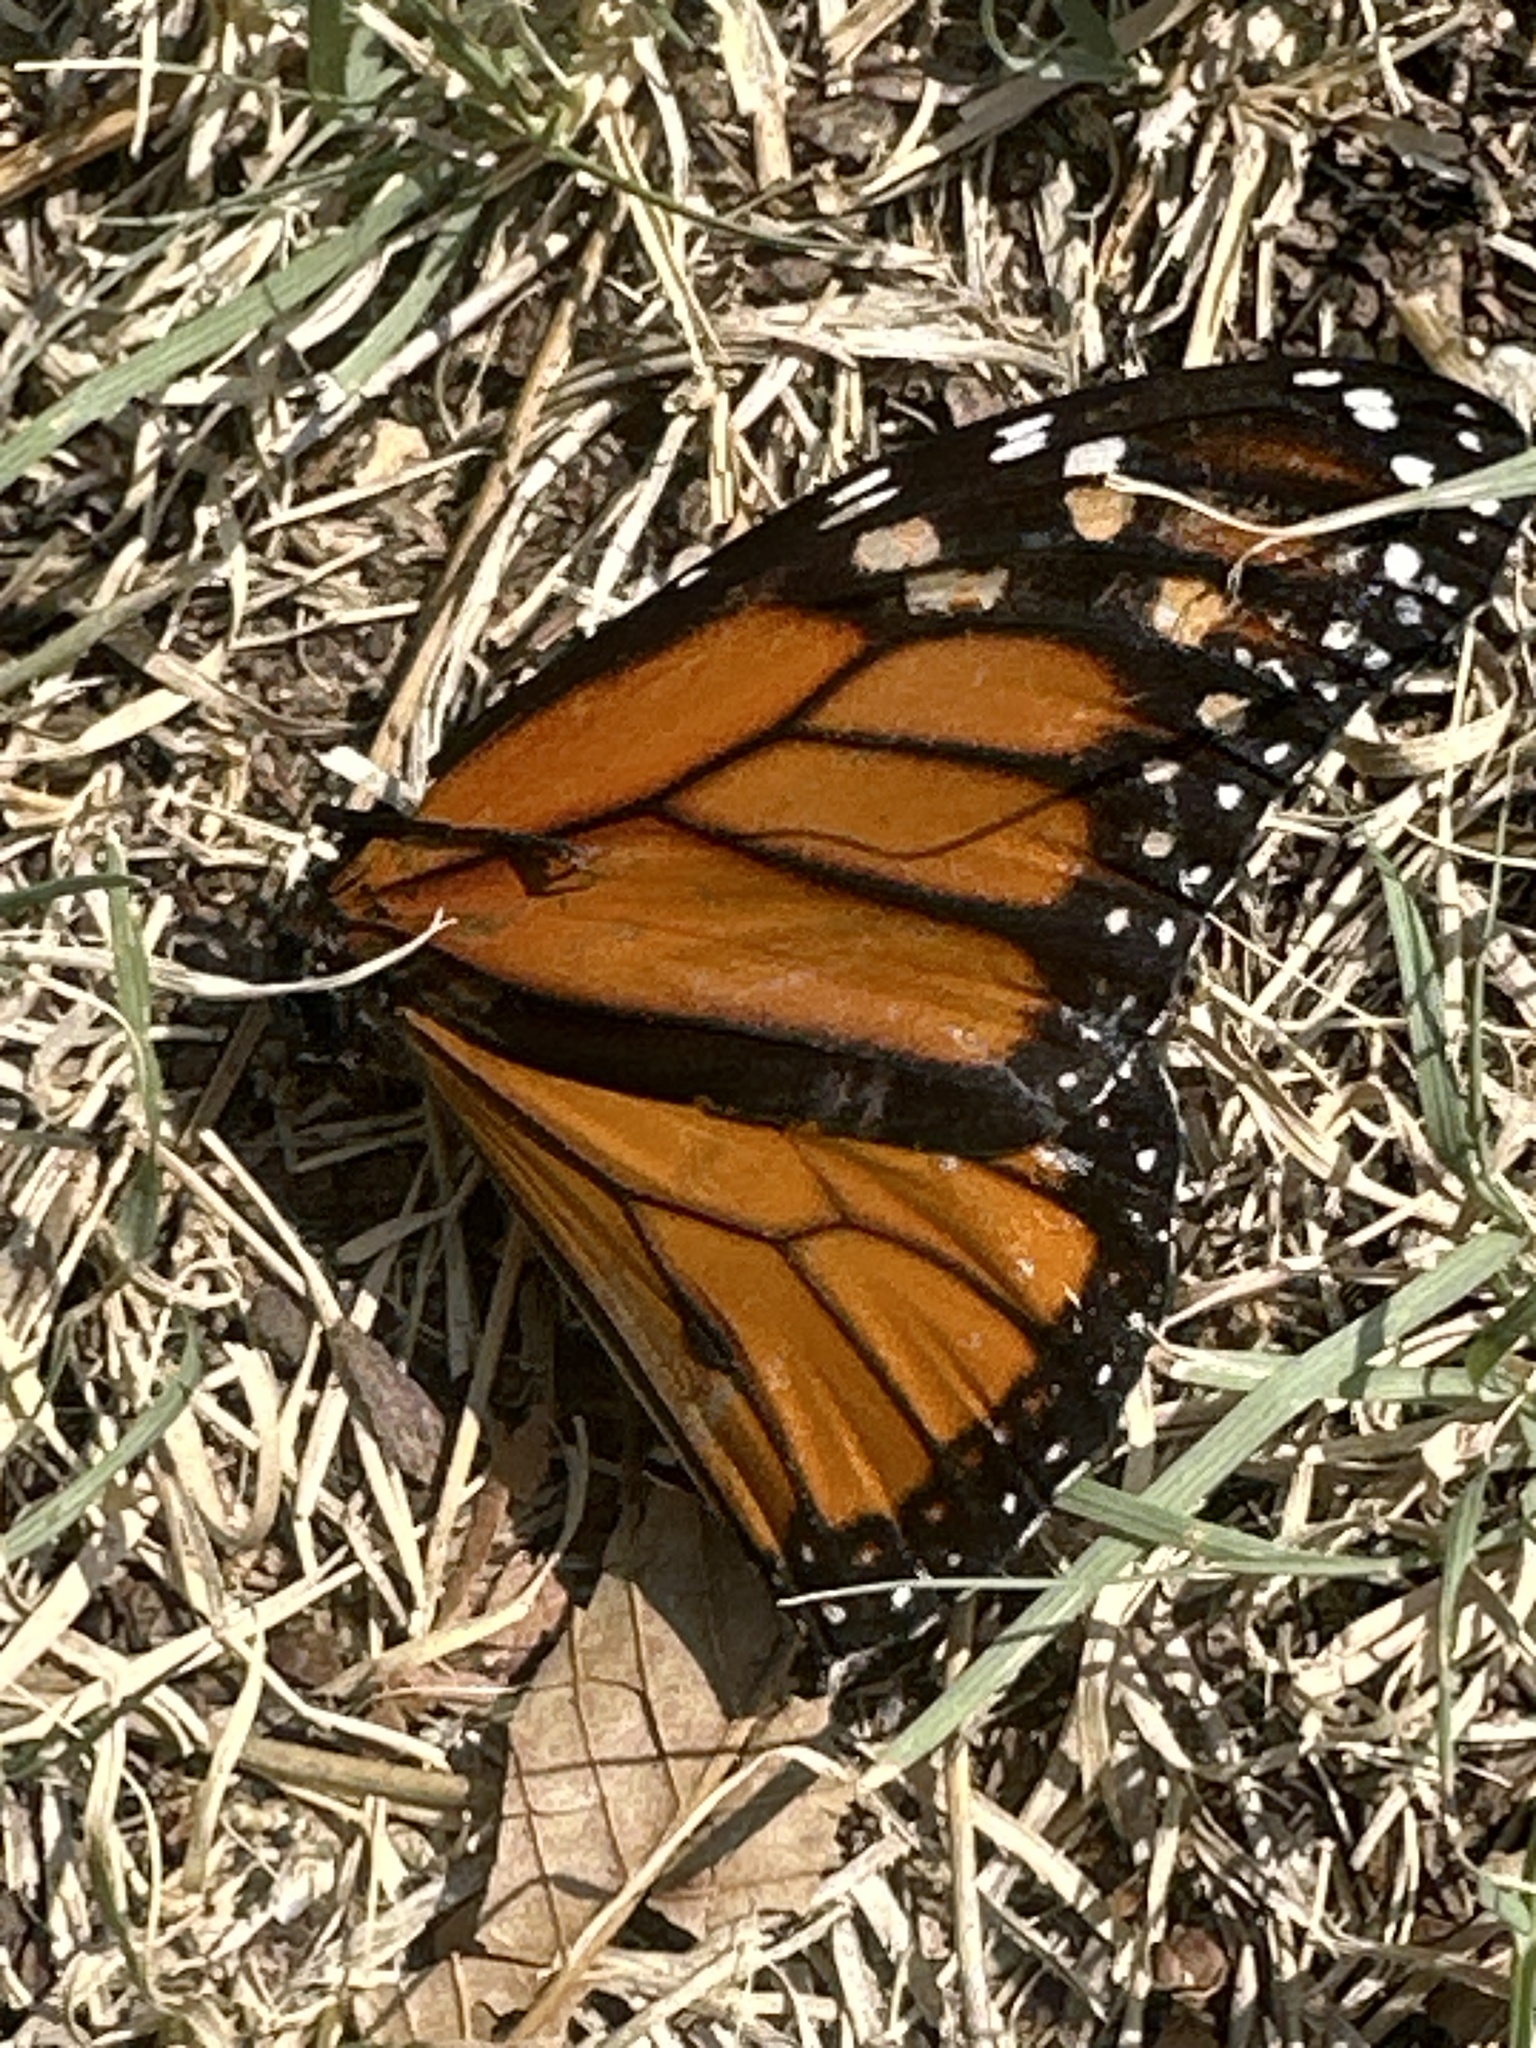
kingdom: Animalia
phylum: Arthropoda
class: Insecta
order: Lepidoptera
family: Nymphalidae
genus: Danaus
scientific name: Danaus plexippus
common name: Monarch
